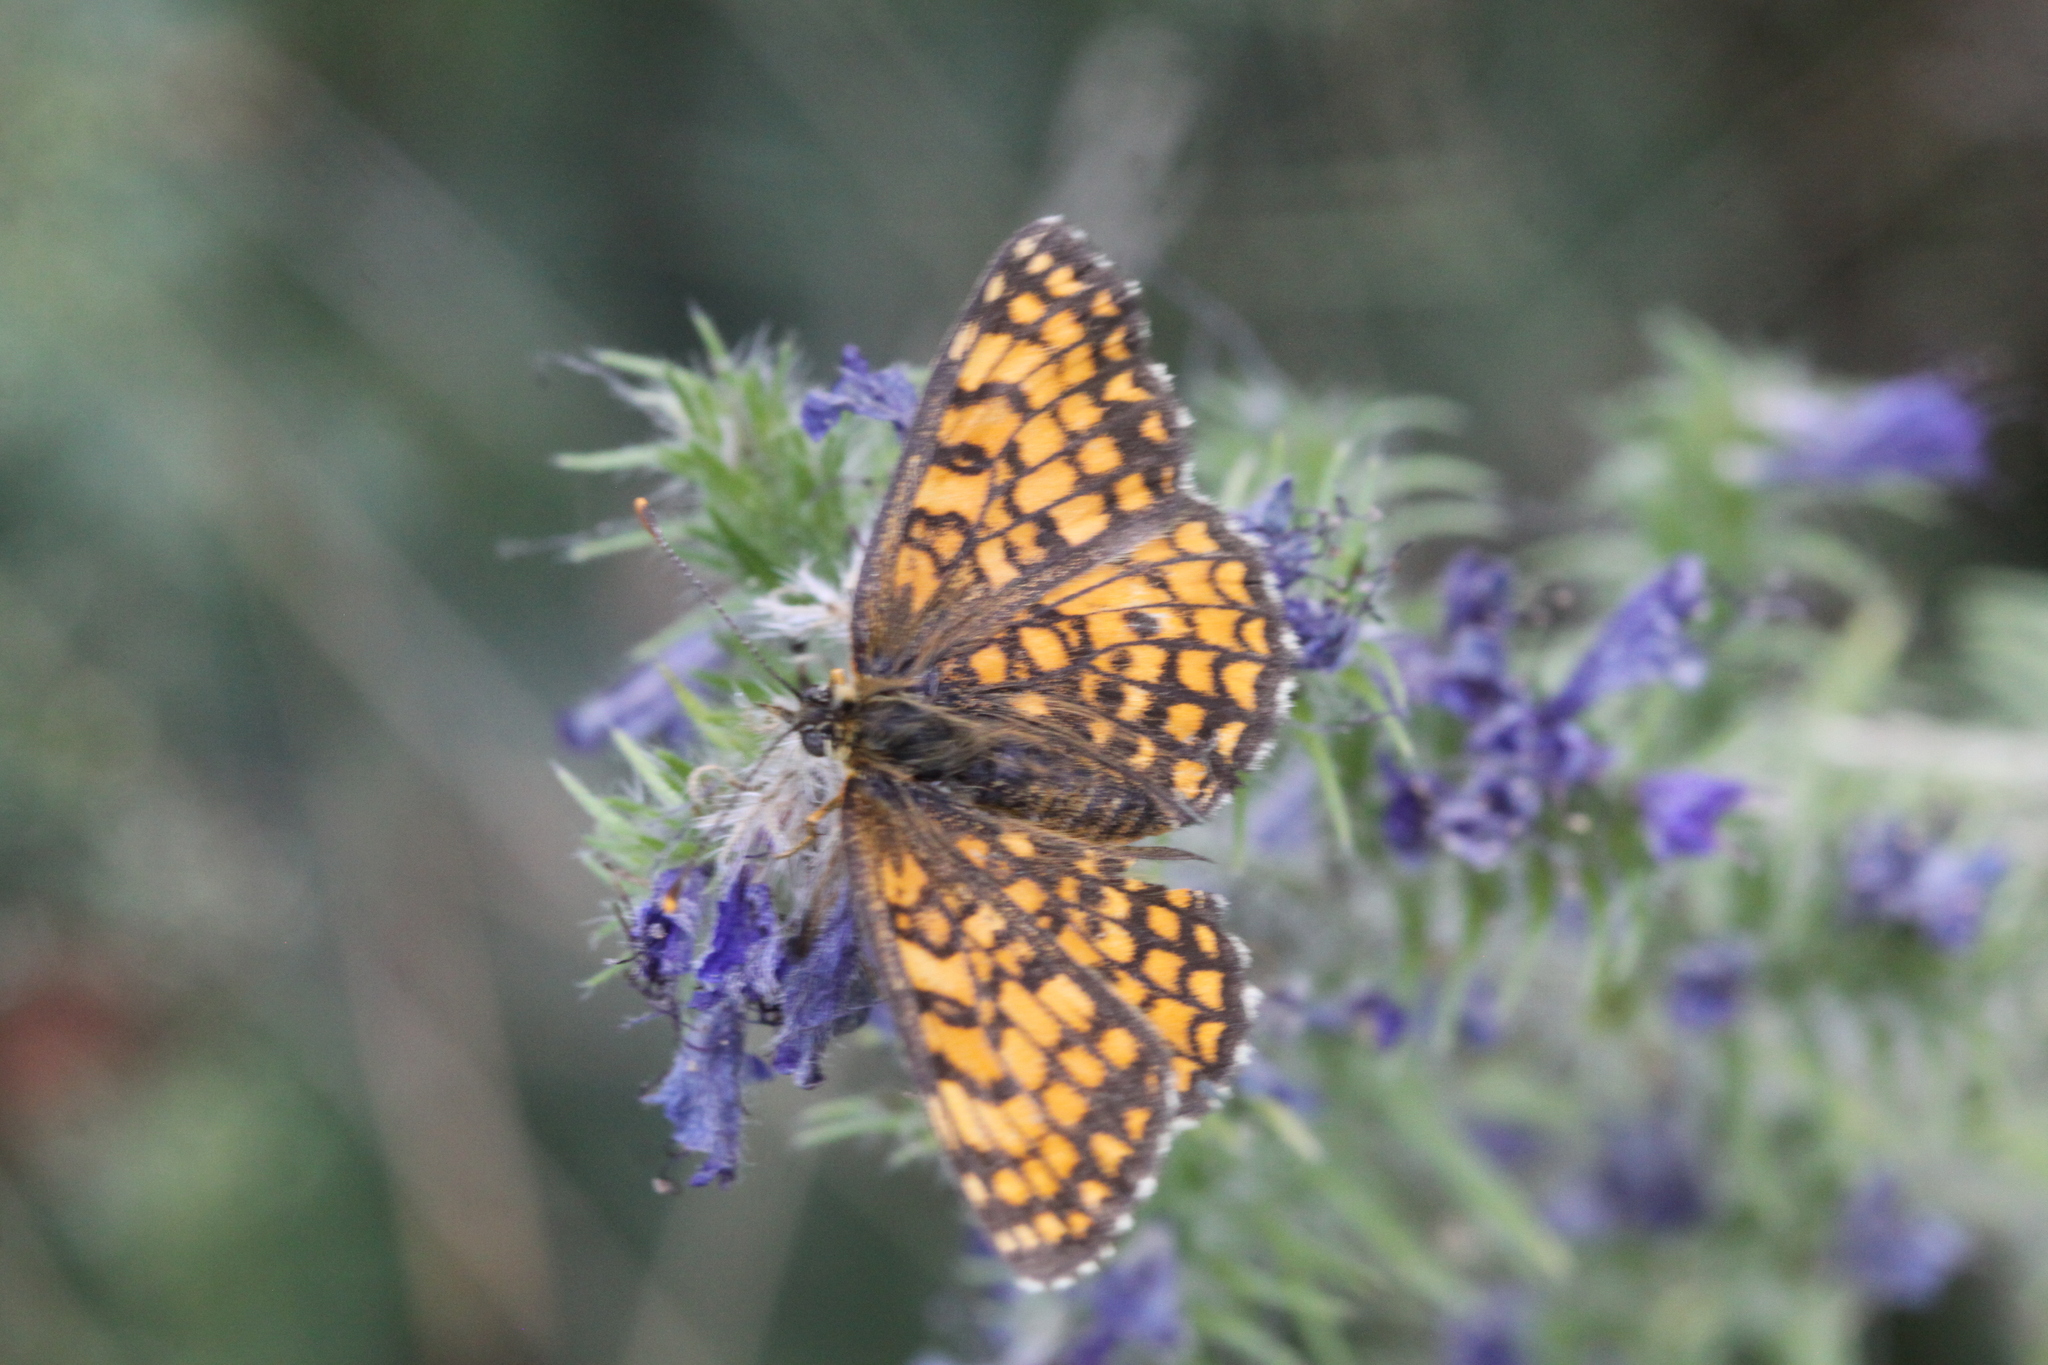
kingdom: Animalia
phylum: Arthropoda
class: Insecta
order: Lepidoptera
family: Nymphalidae
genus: Mellicta
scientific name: Mellicta athalia
